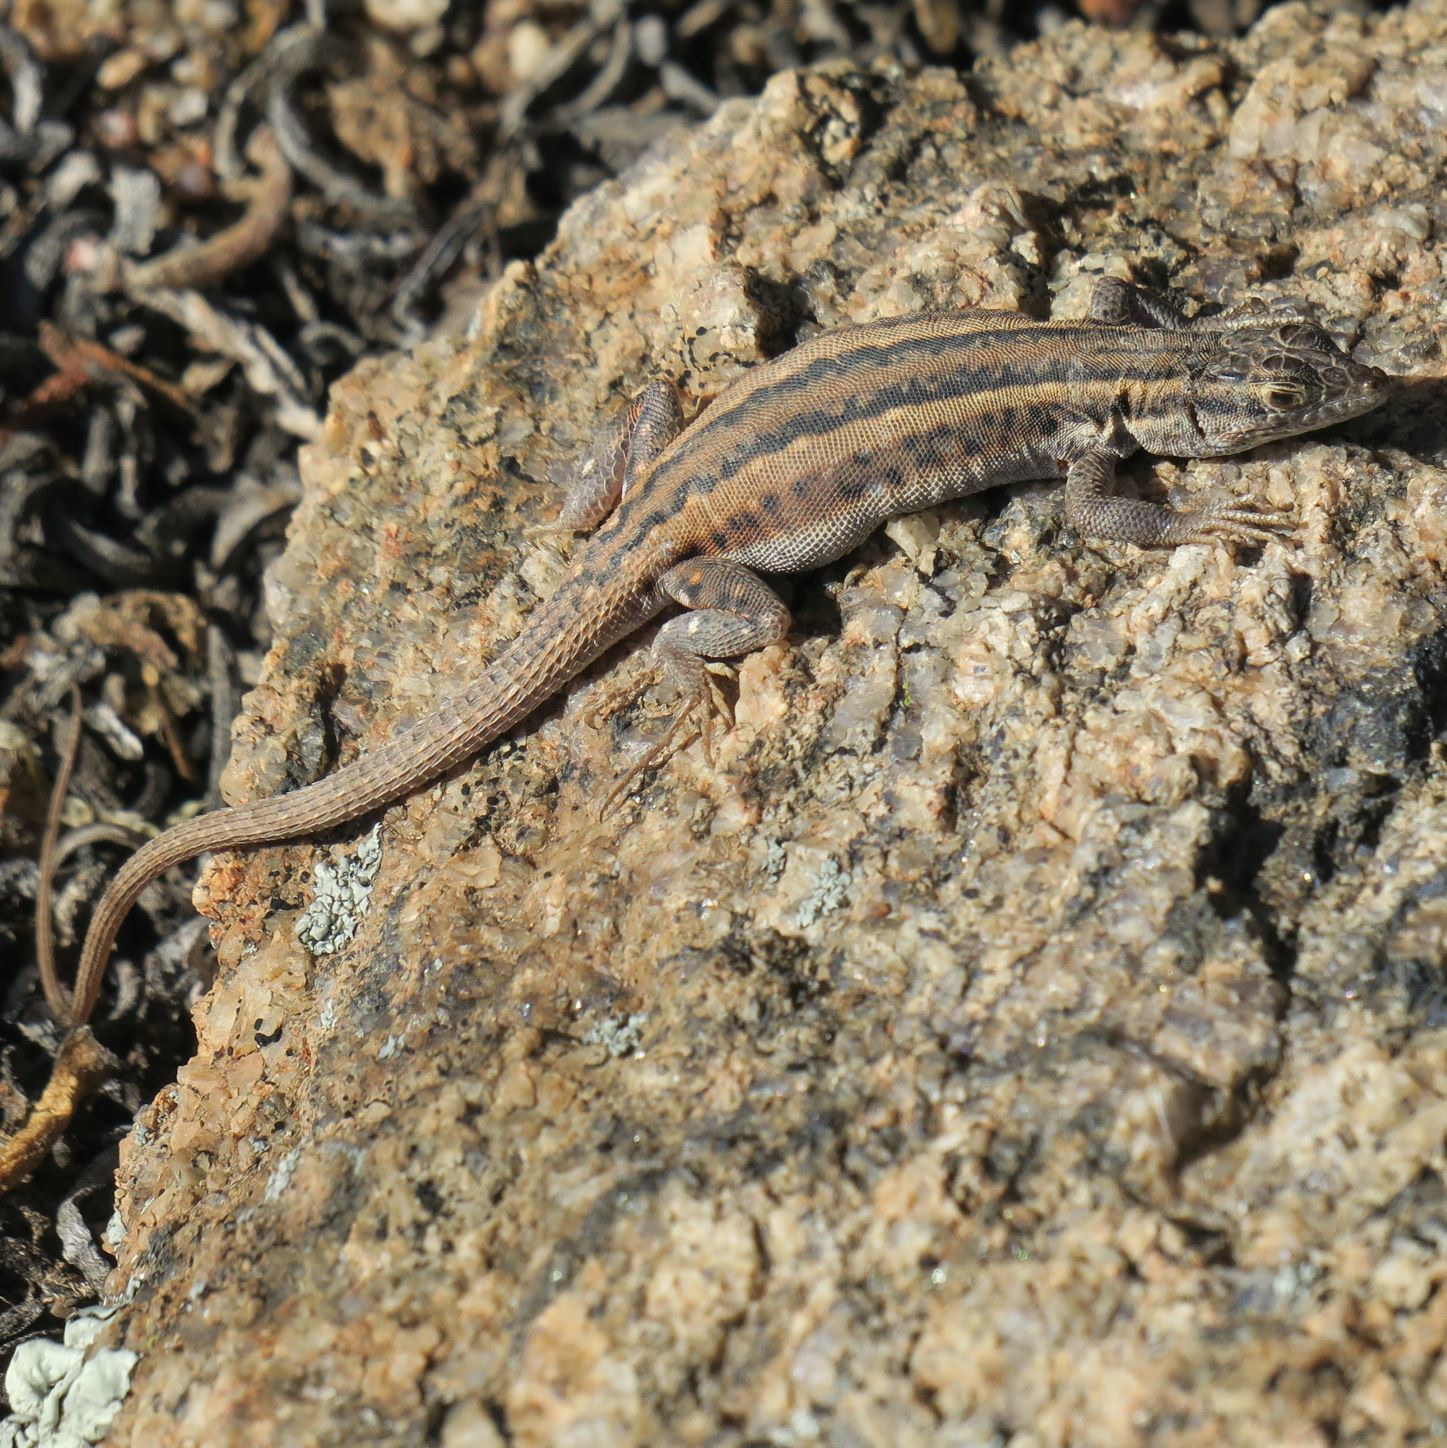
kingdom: Animalia
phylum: Chordata
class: Squamata
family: Lacertidae
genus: Pedioplanis
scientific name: Pedioplanis lineoocellata
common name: Spotted sand lizard
